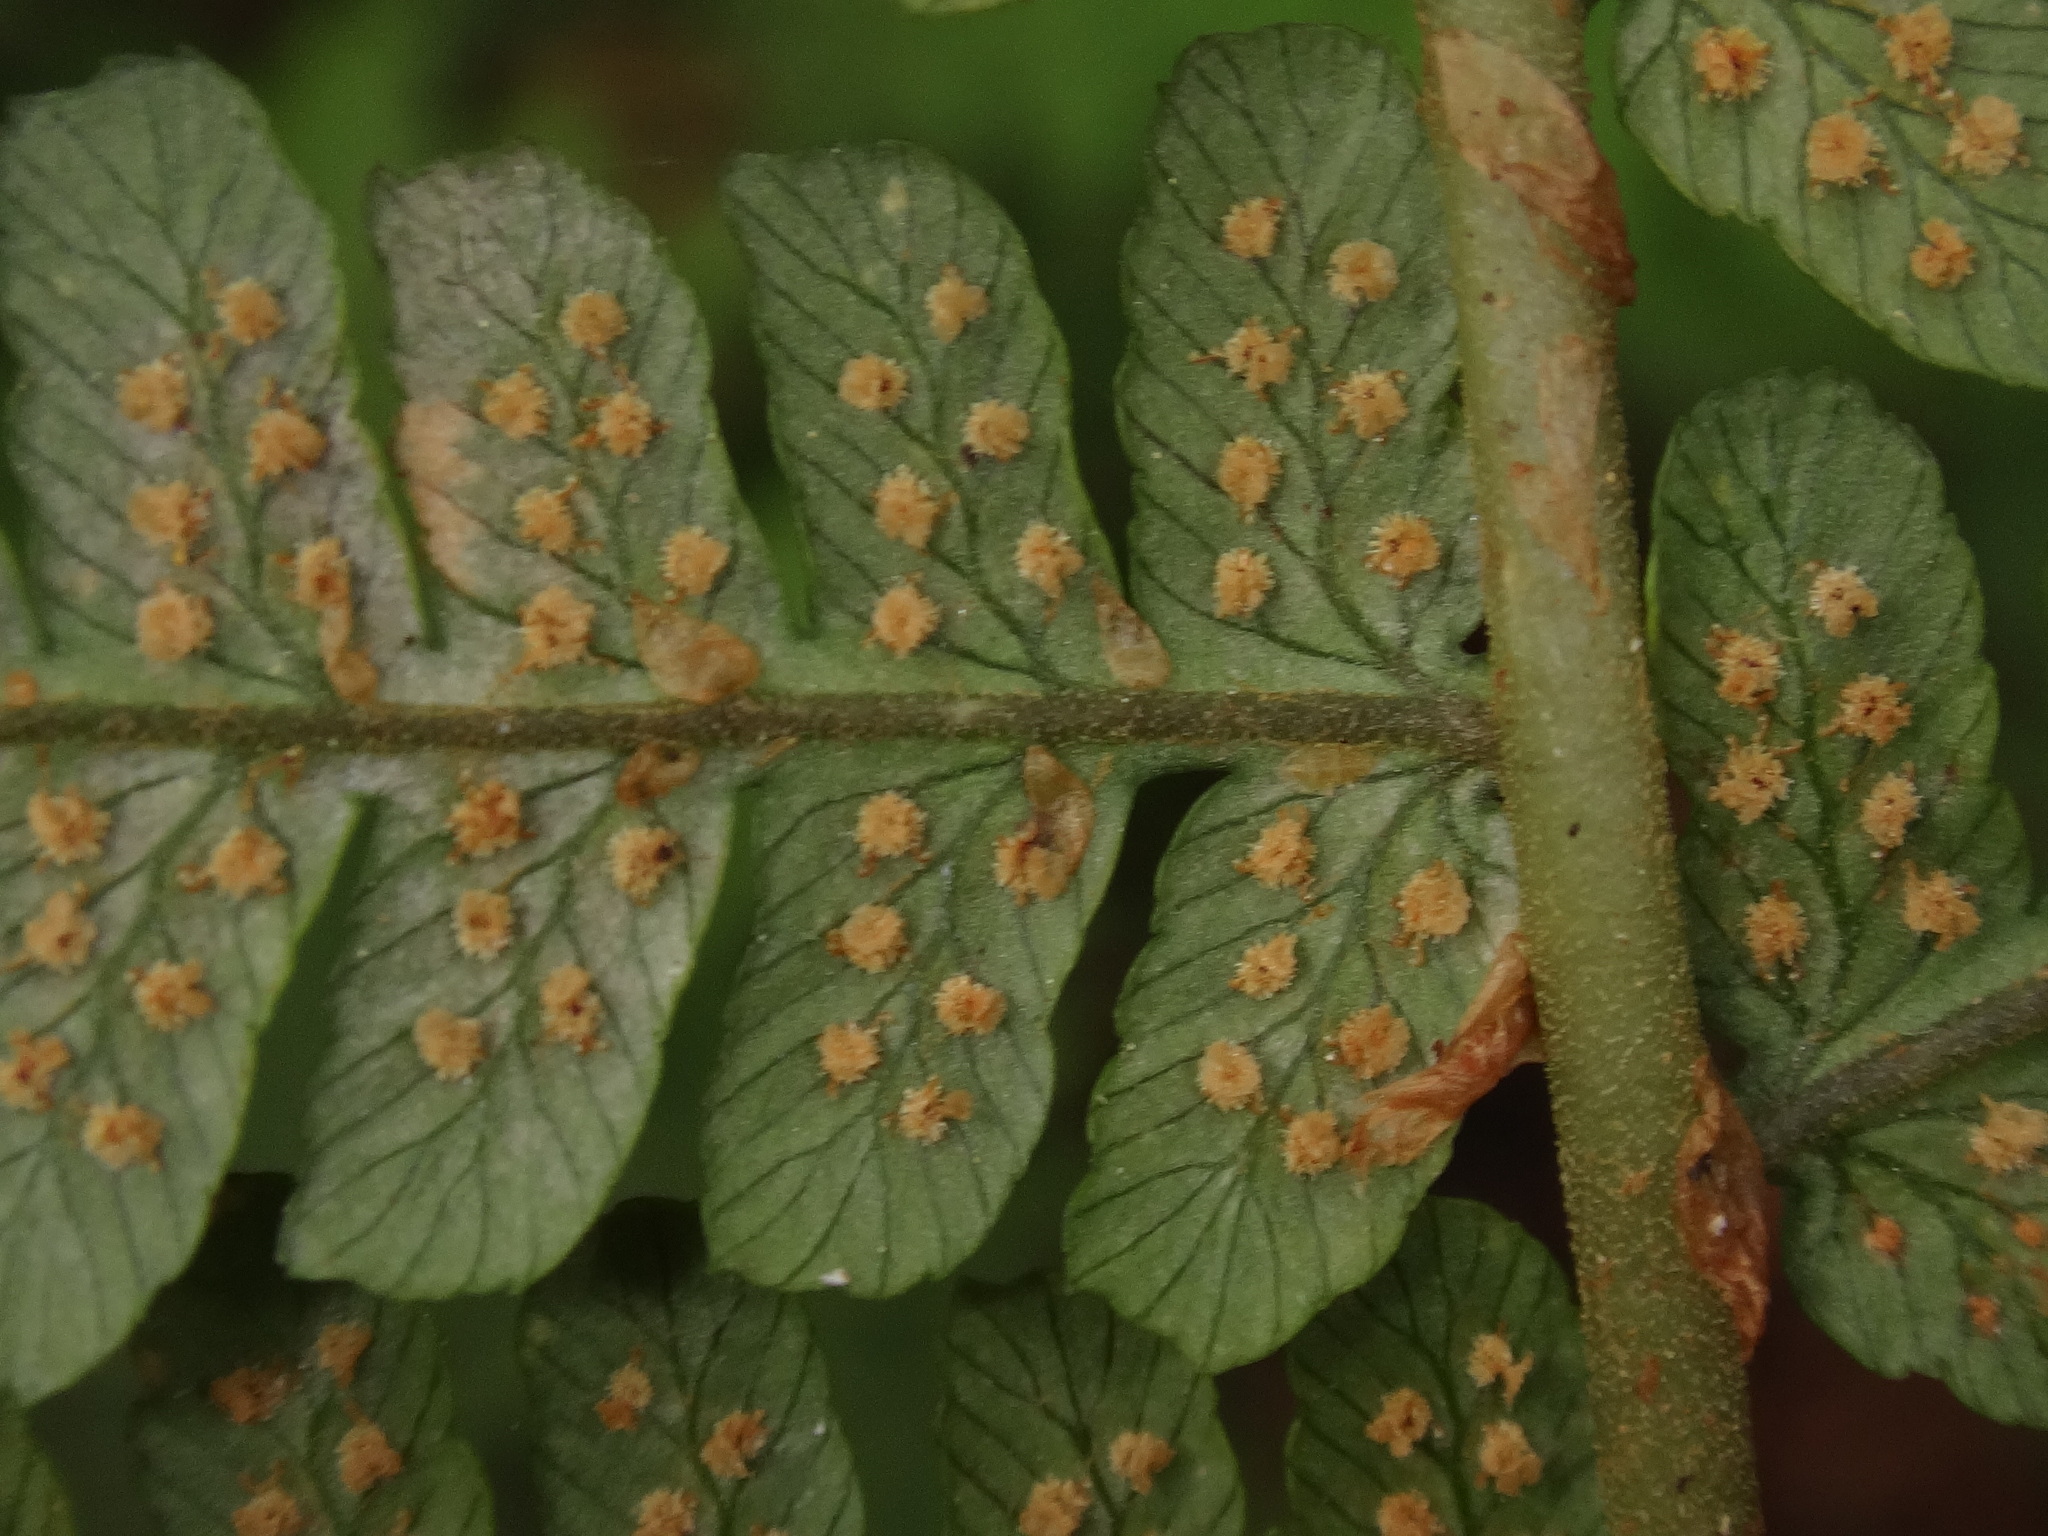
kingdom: Plantae
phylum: Tracheophyta
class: Polypodiopsida
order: Polypodiales
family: Dryopteridaceae
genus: Dryopteris
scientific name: Dryopteris oligodonta
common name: Canarian male-fern
